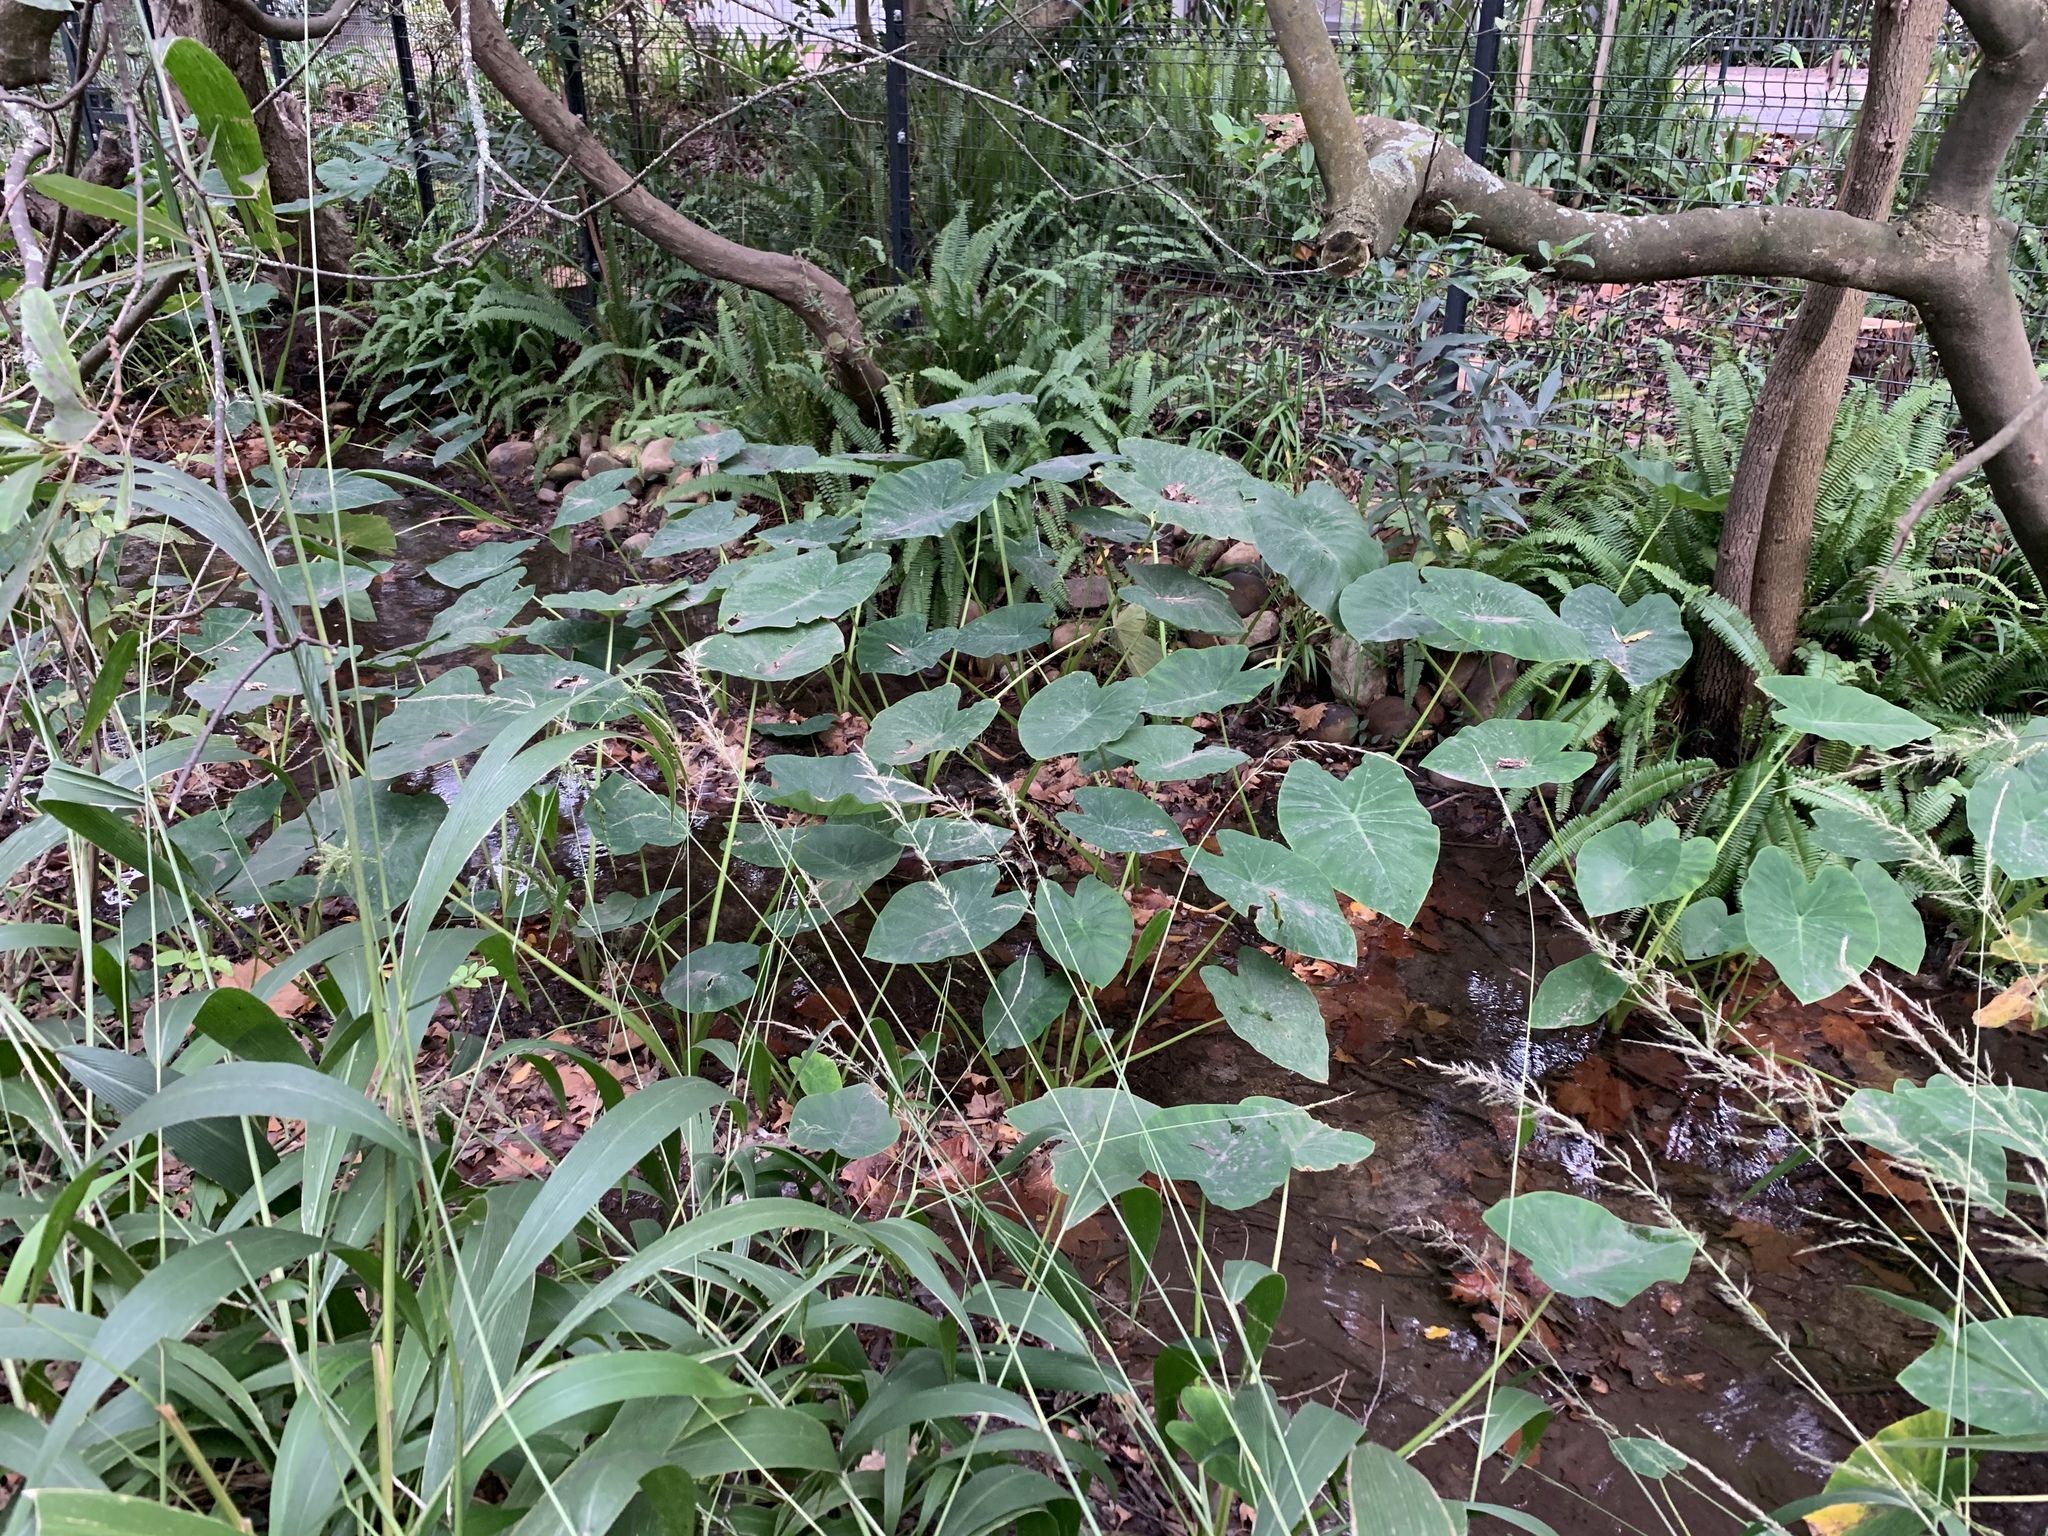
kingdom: Plantae
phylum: Tracheophyta
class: Liliopsida
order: Alismatales
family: Araceae
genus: Colocasia
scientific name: Colocasia esculenta
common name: Taro
